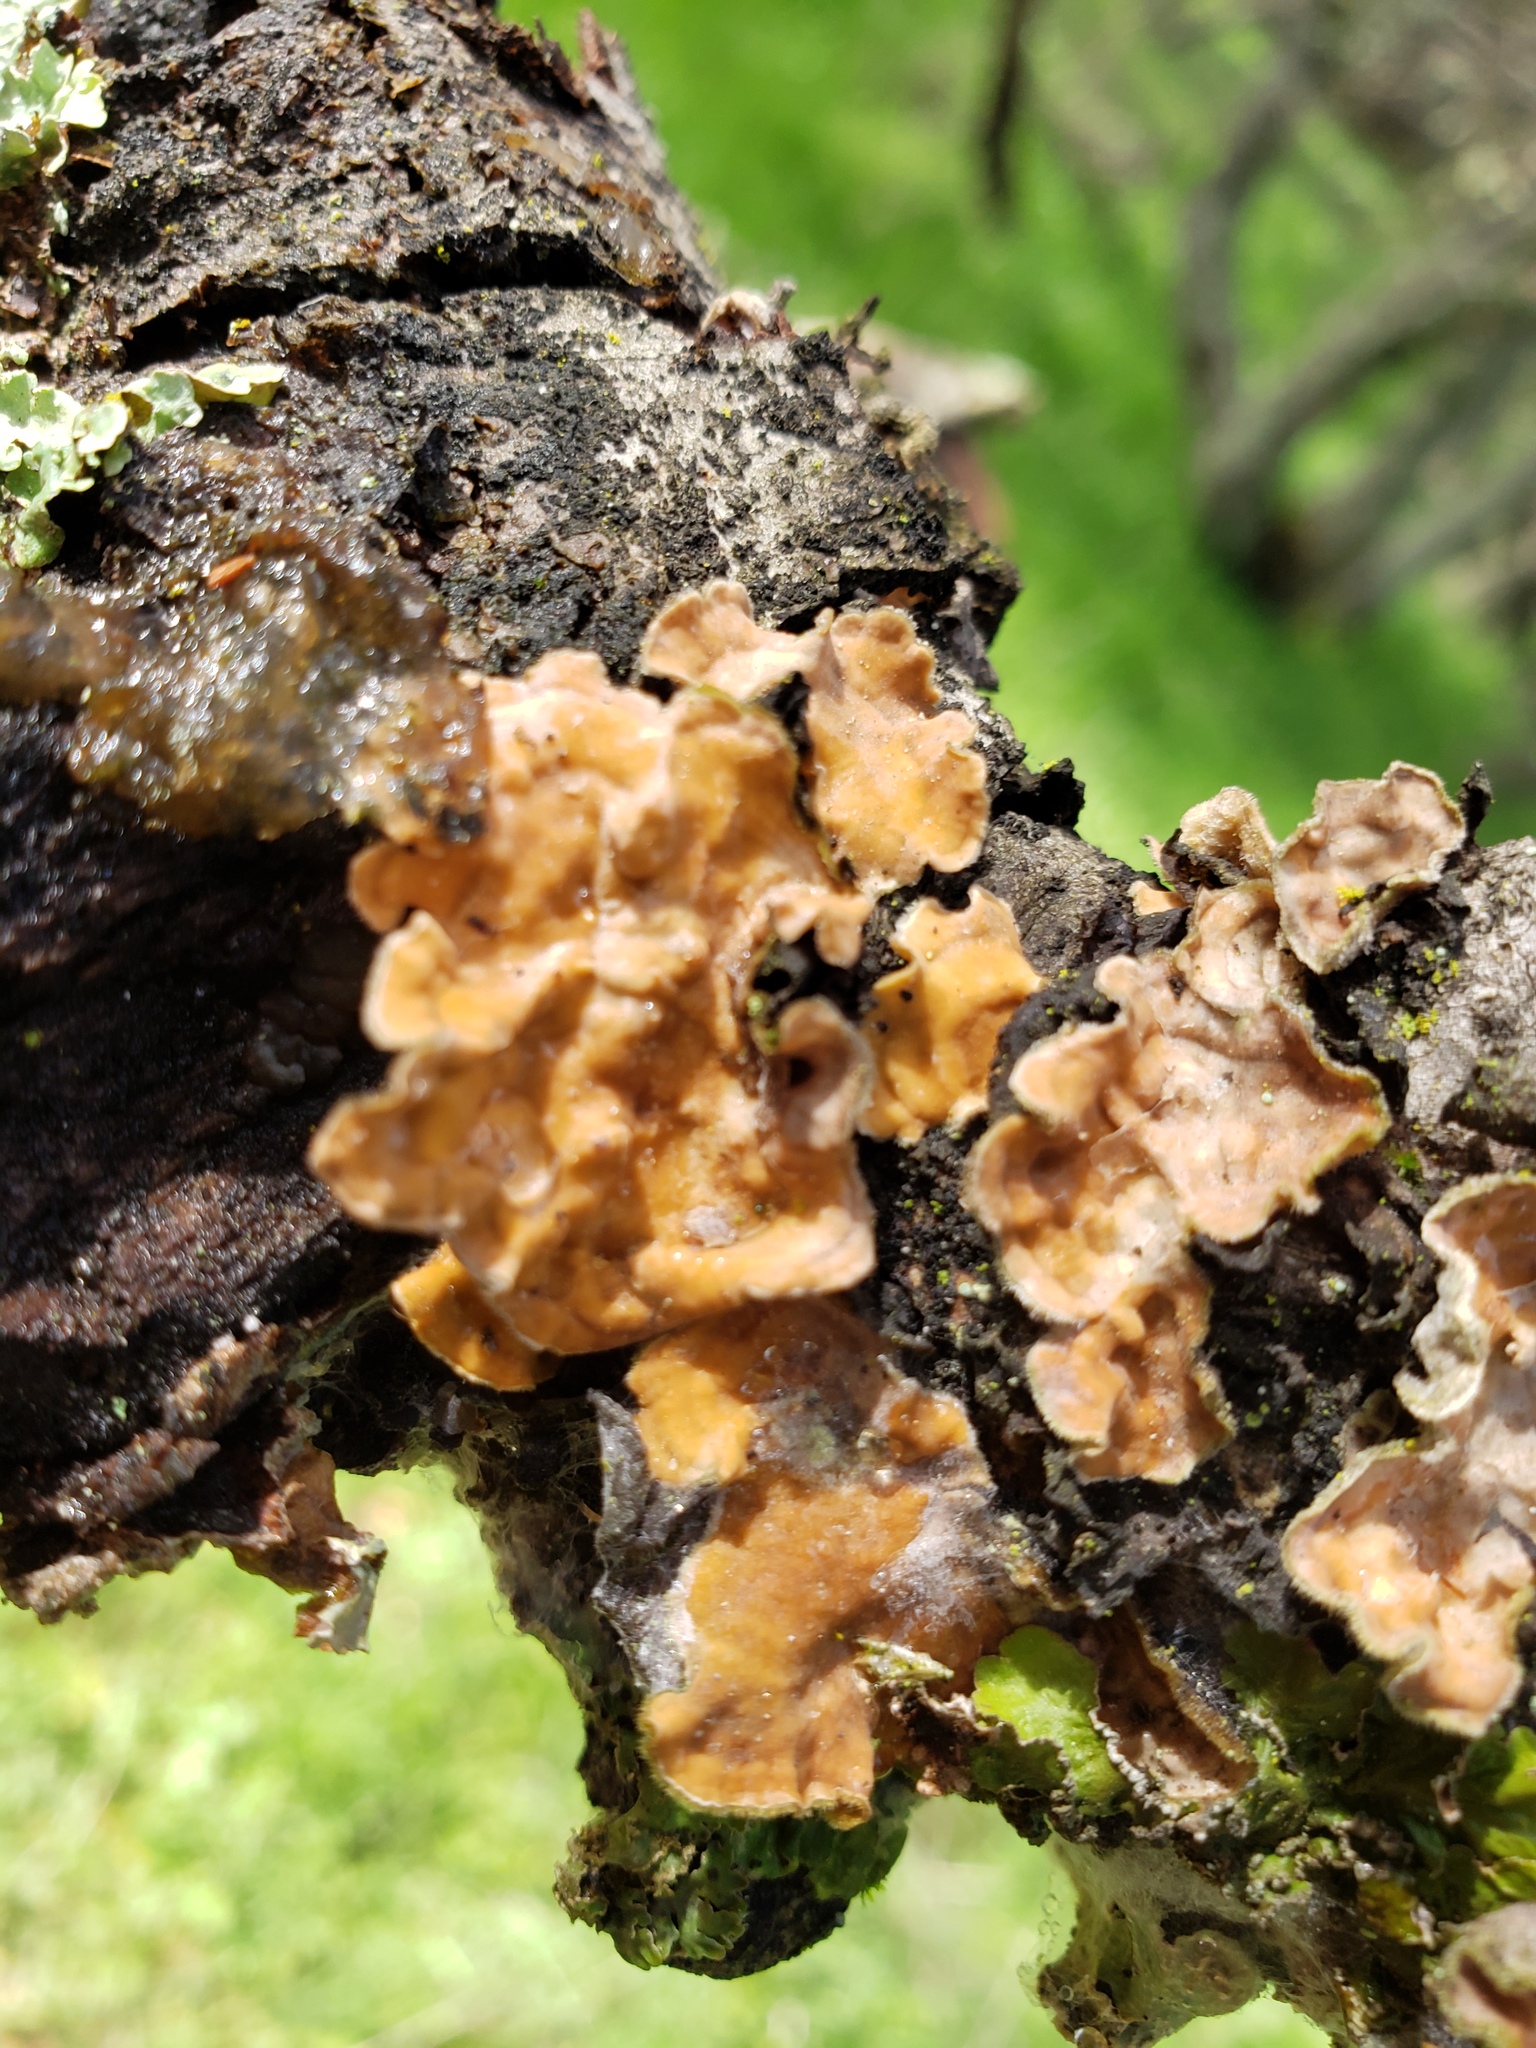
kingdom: Fungi
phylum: Basidiomycota
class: Agaricomycetes
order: Russulales
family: Stereaceae
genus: Stereum
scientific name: Stereum hirsutum
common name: Hairy curtain crust
